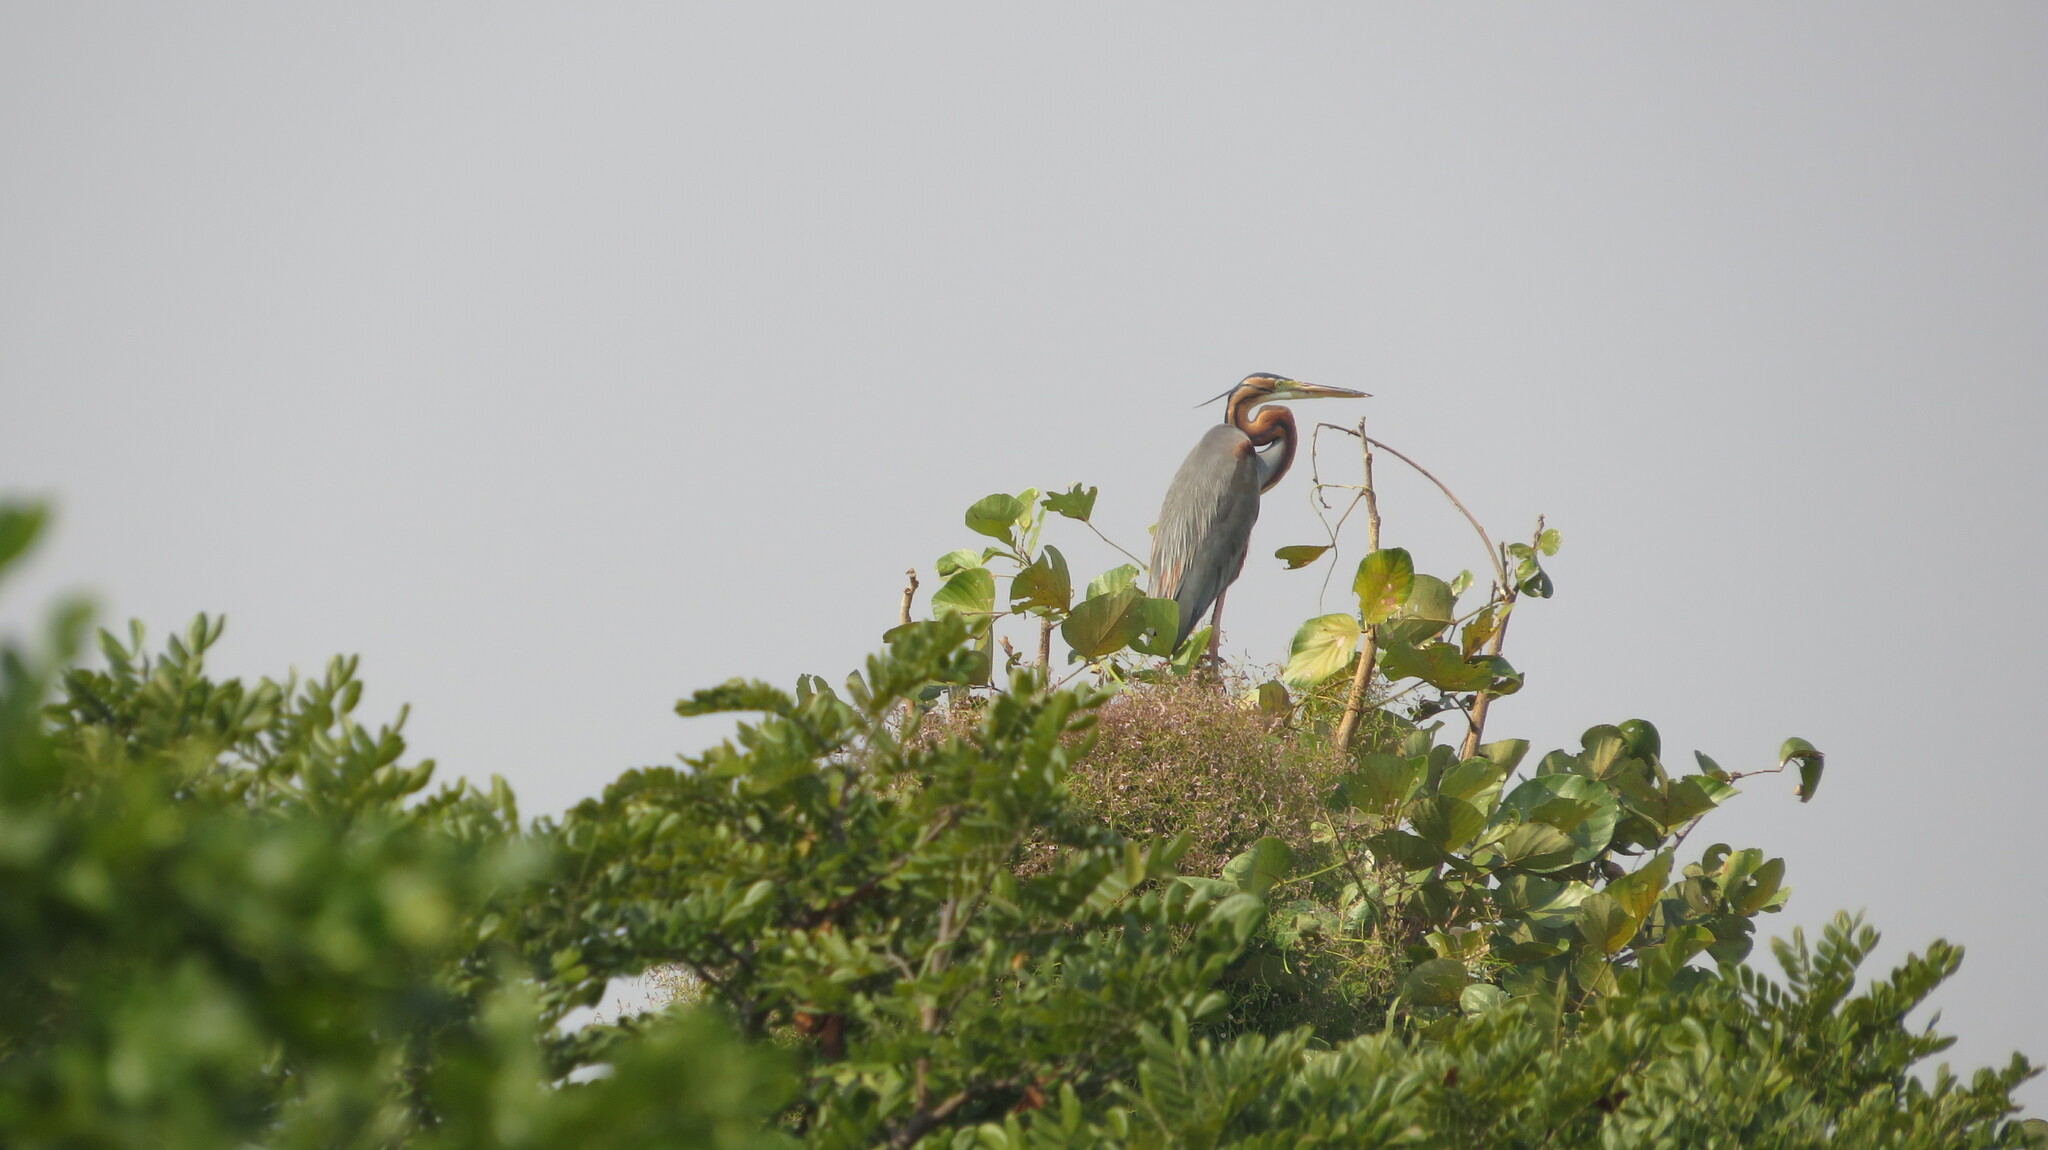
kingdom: Animalia
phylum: Chordata
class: Aves
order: Pelecaniformes
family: Ardeidae
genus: Ardea
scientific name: Ardea purpurea
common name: Purple heron
